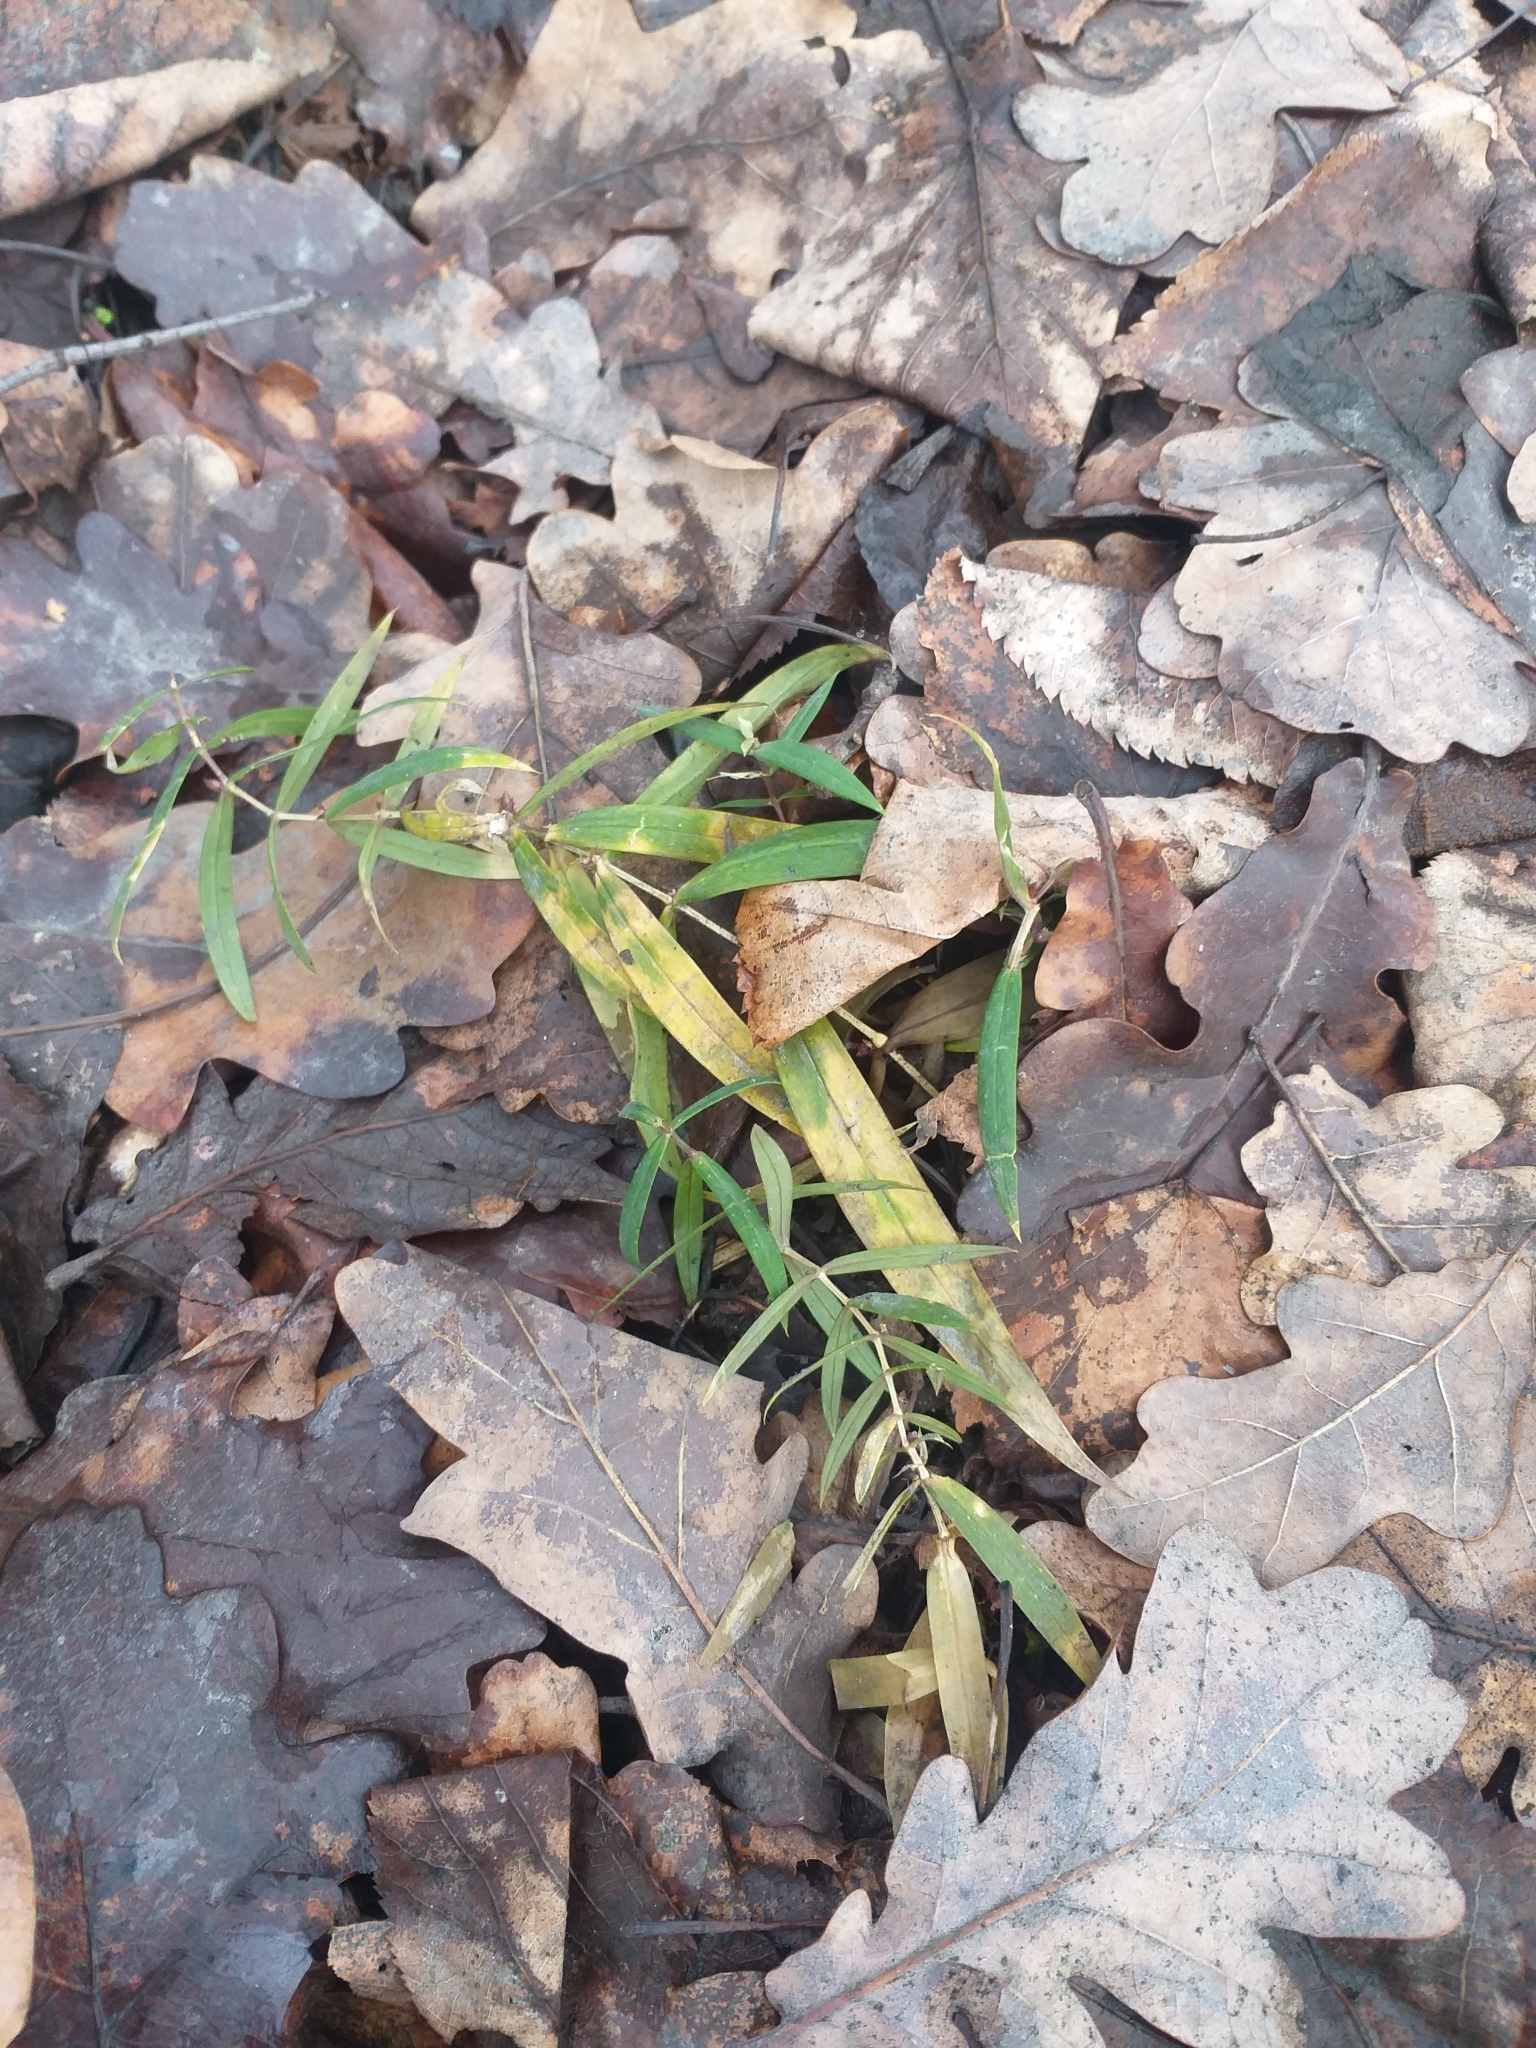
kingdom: Plantae
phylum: Tracheophyta
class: Magnoliopsida
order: Caryophyllales
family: Caryophyllaceae
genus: Rabelera
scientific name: Rabelera holostea
